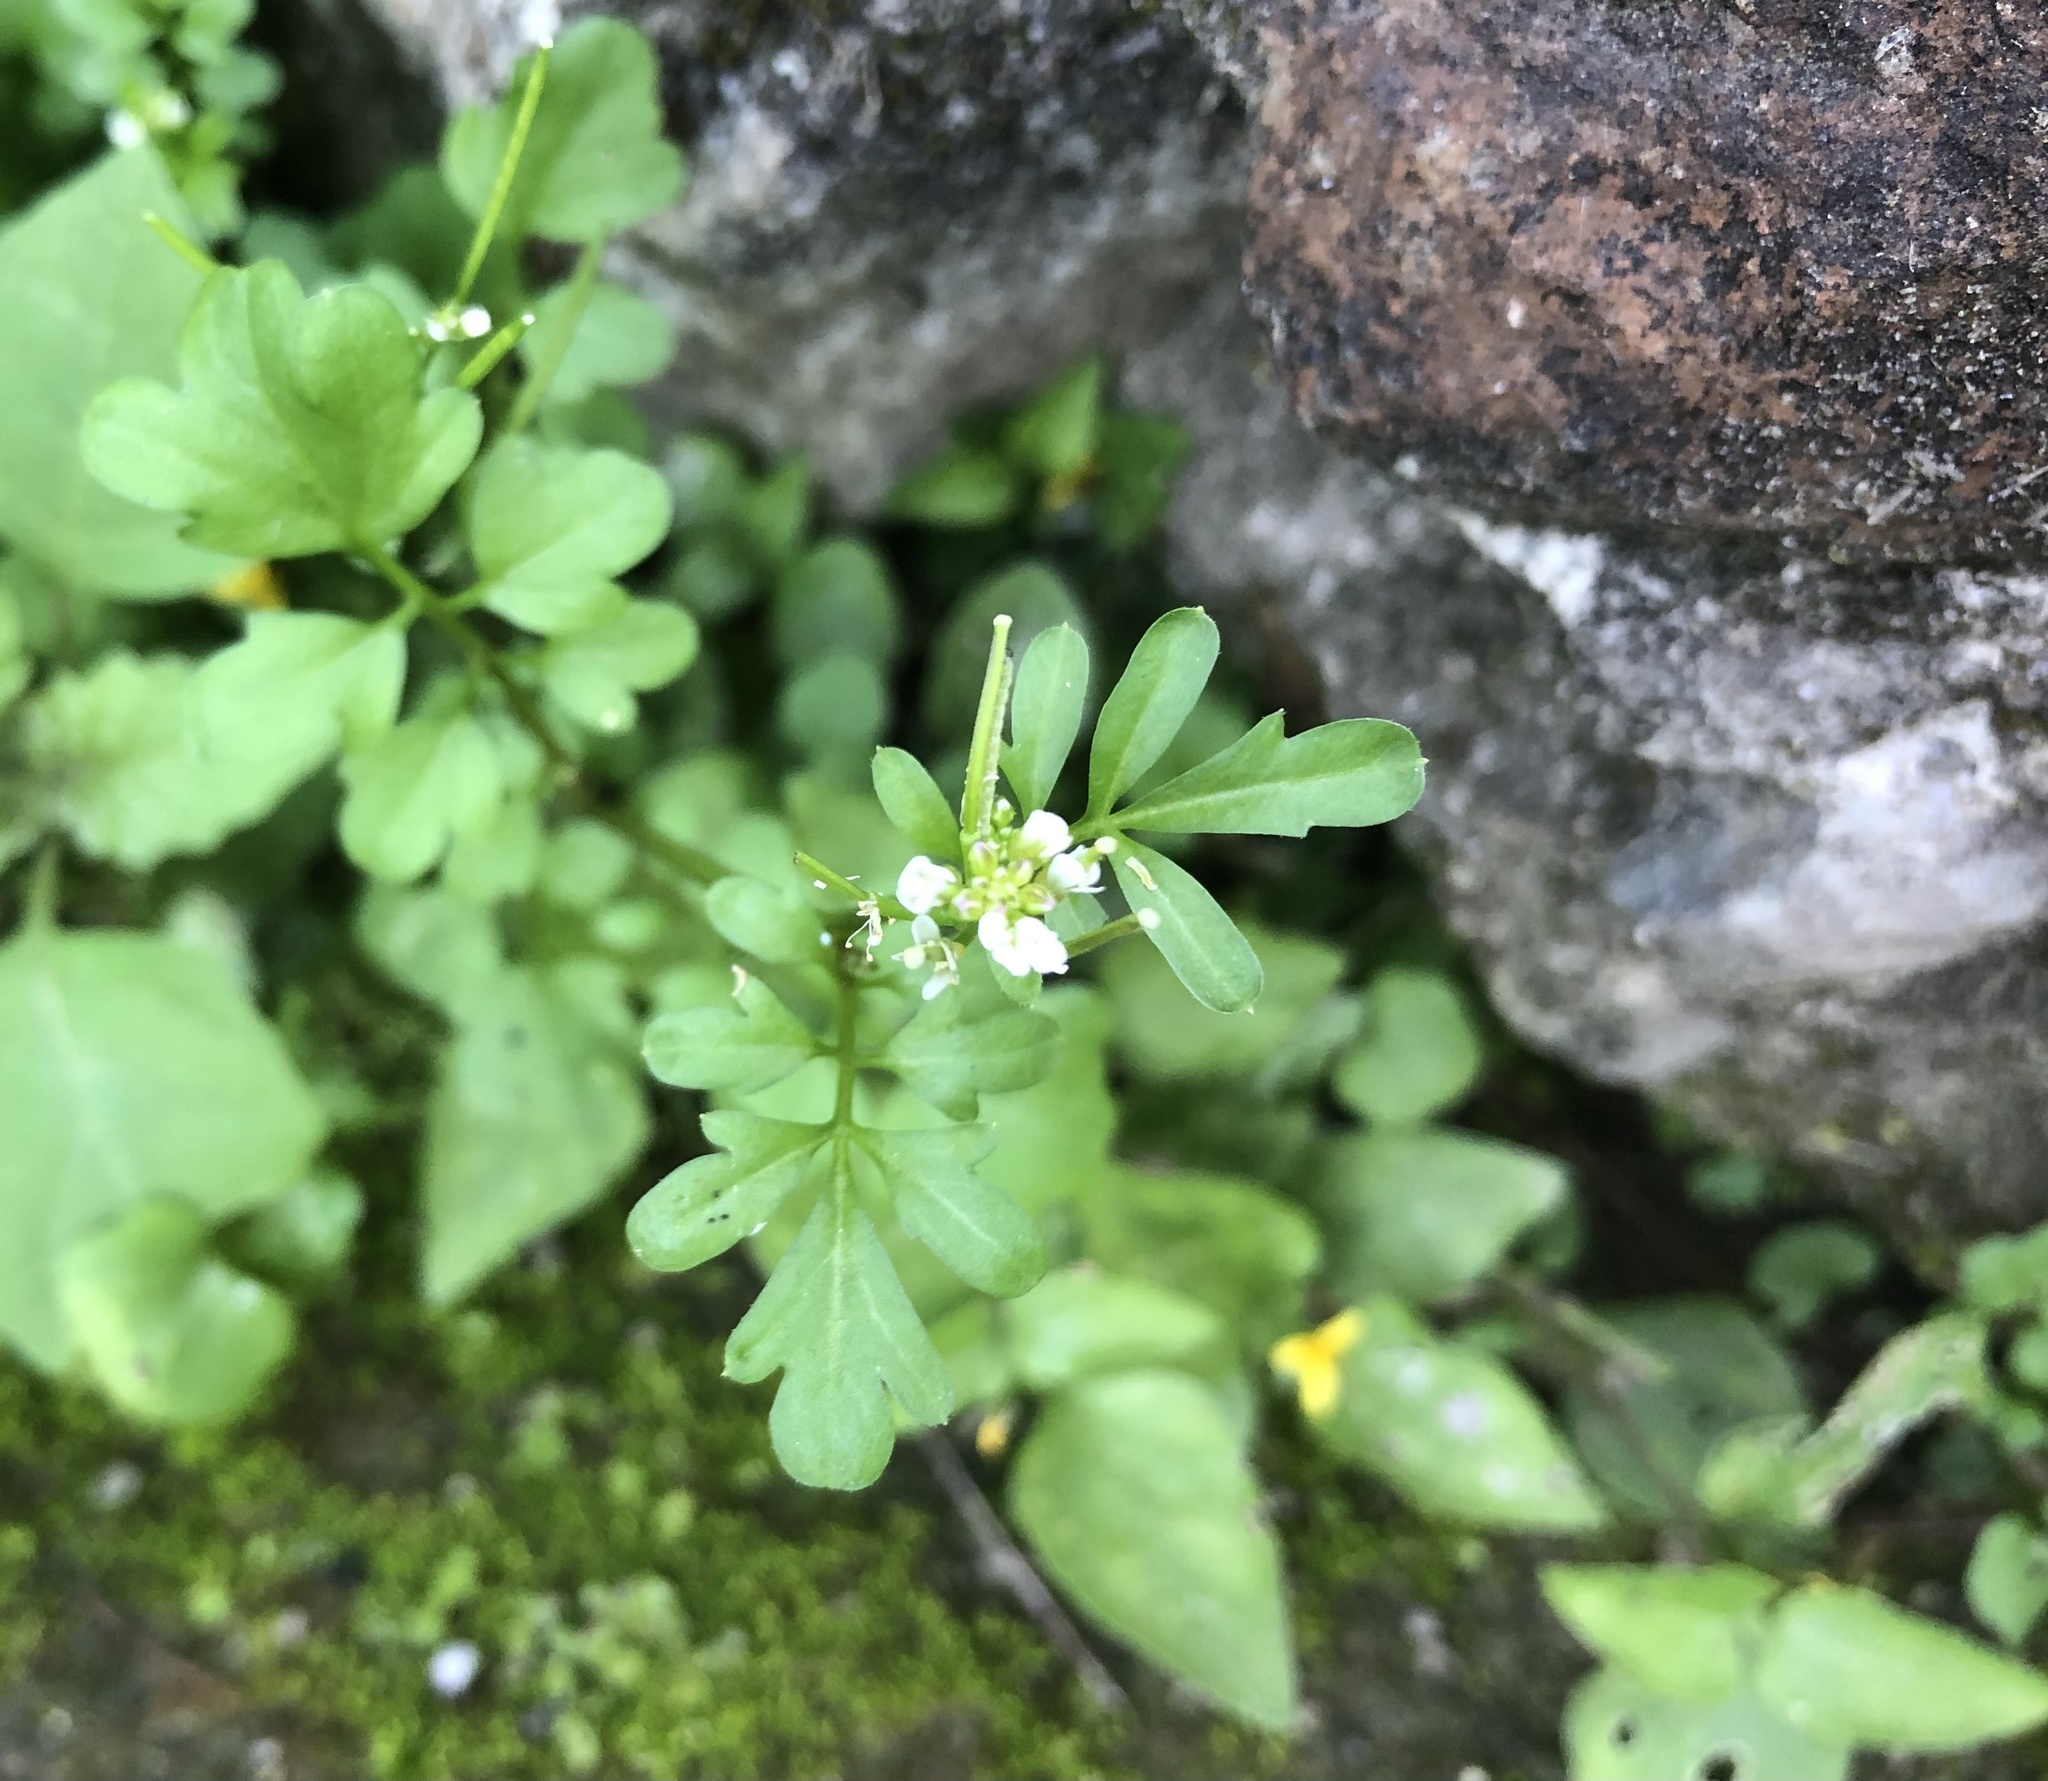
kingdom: Plantae
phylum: Tracheophyta
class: Magnoliopsida
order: Brassicales
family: Brassicaceae
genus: Cardamine
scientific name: Cardamine flexuosa
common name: Woodland bittercress
